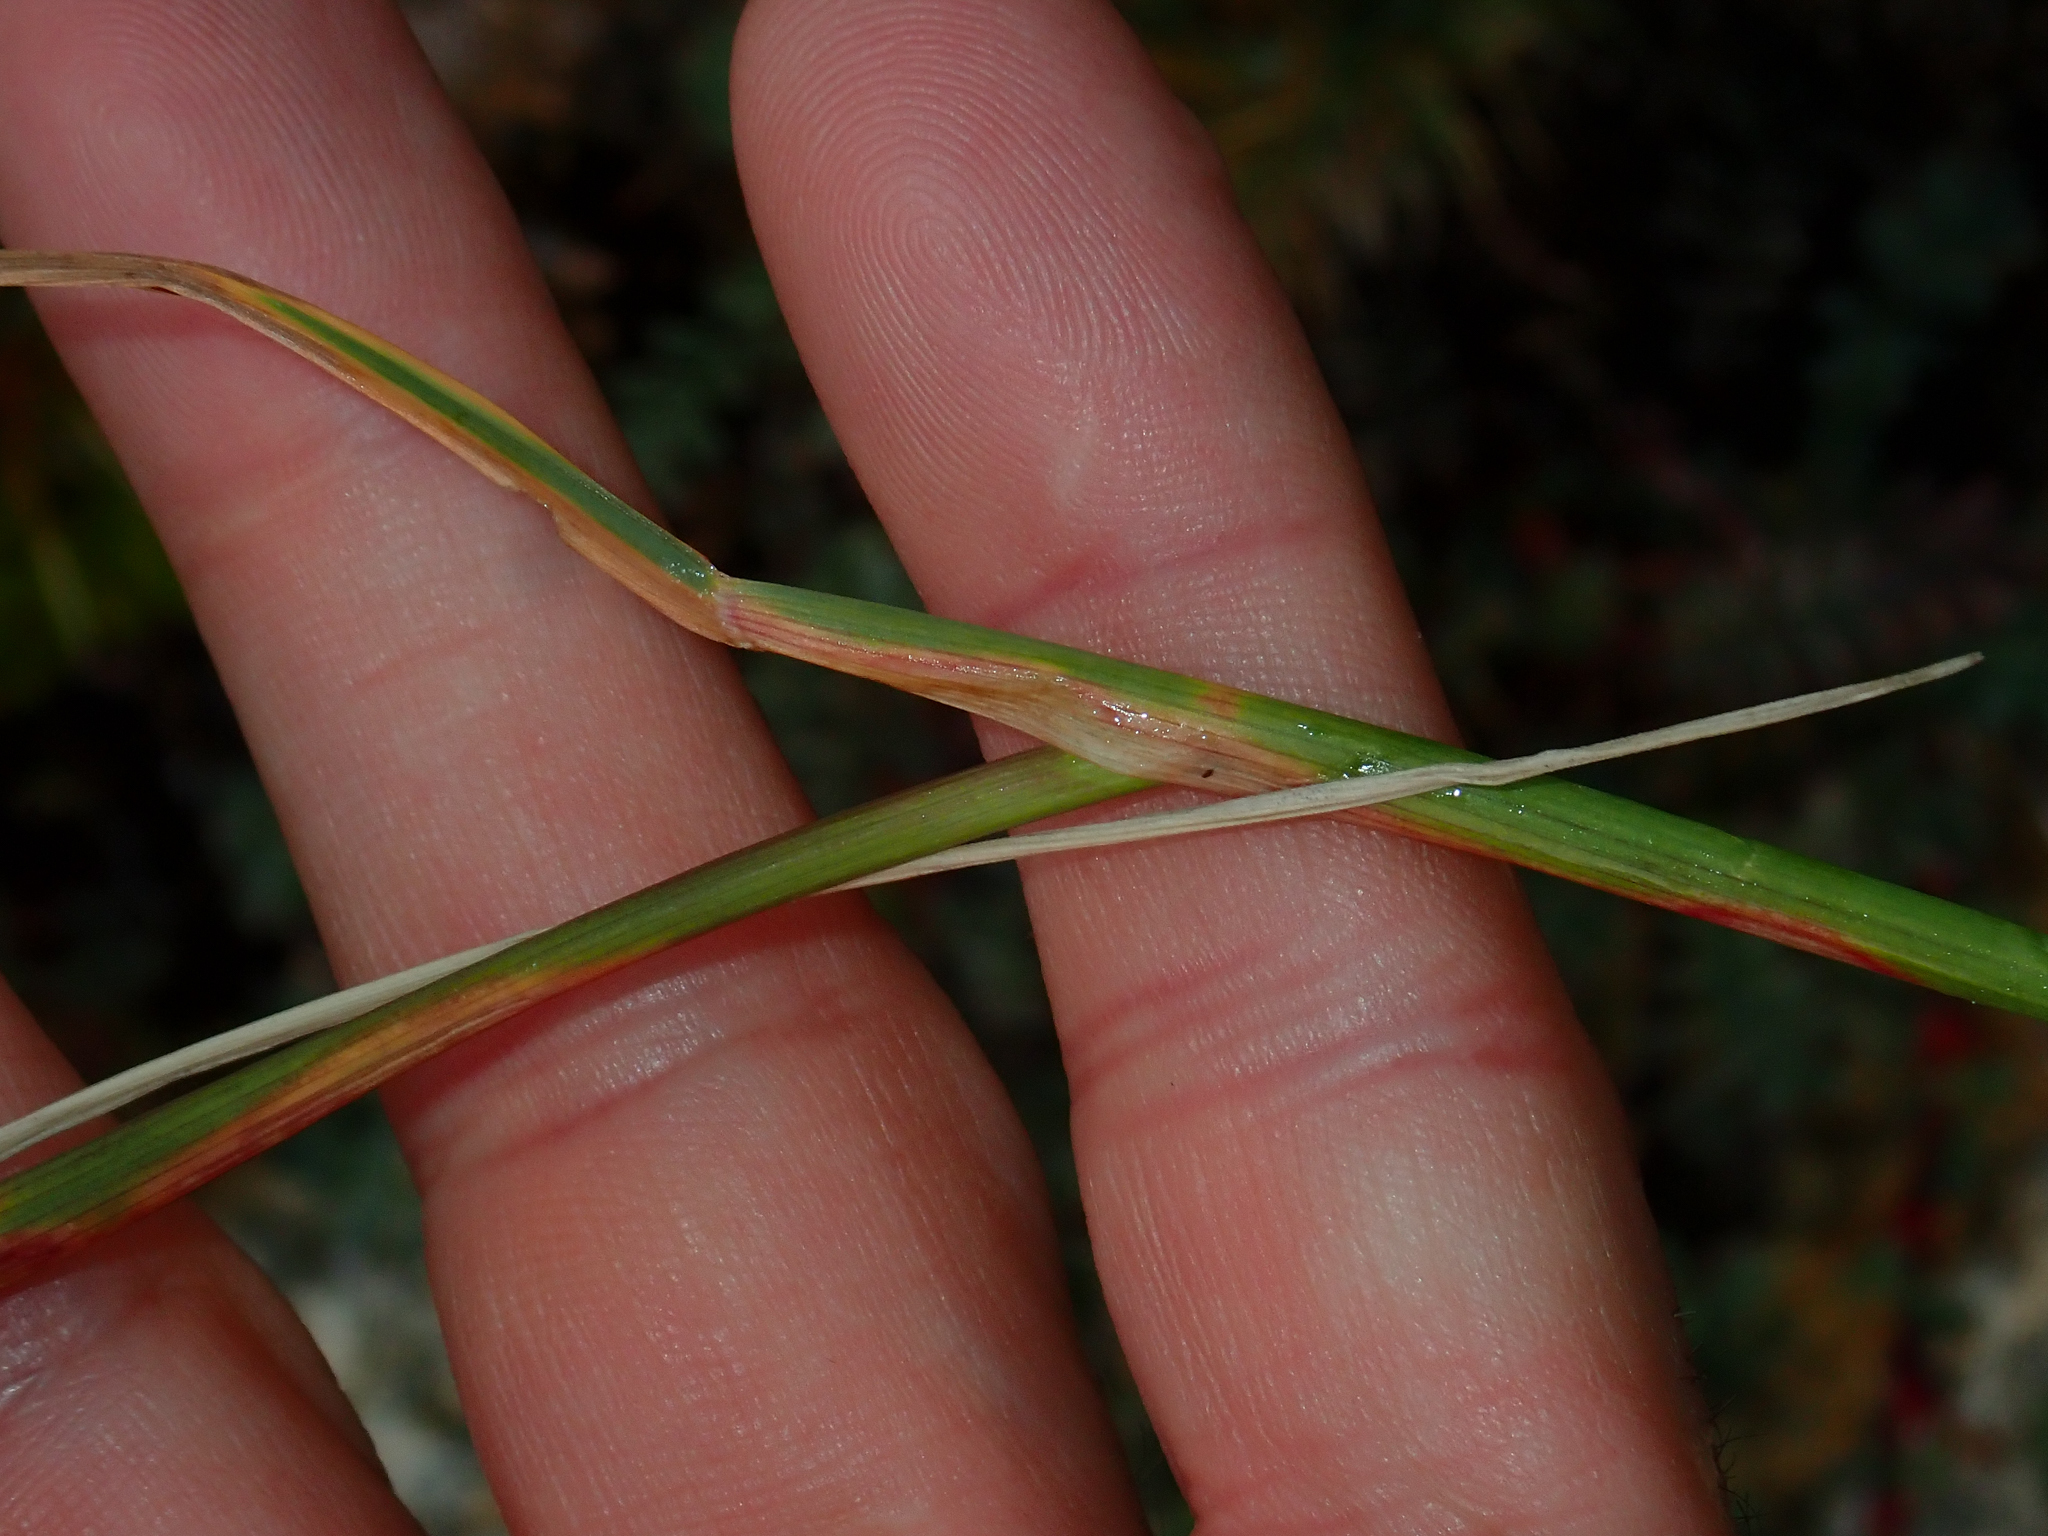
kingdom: Plantae
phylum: Tracheophyta
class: Liliopsida
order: Poales
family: Poaceae
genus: Phleum
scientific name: Phleum alpinum
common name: Alpine cat's-tail
